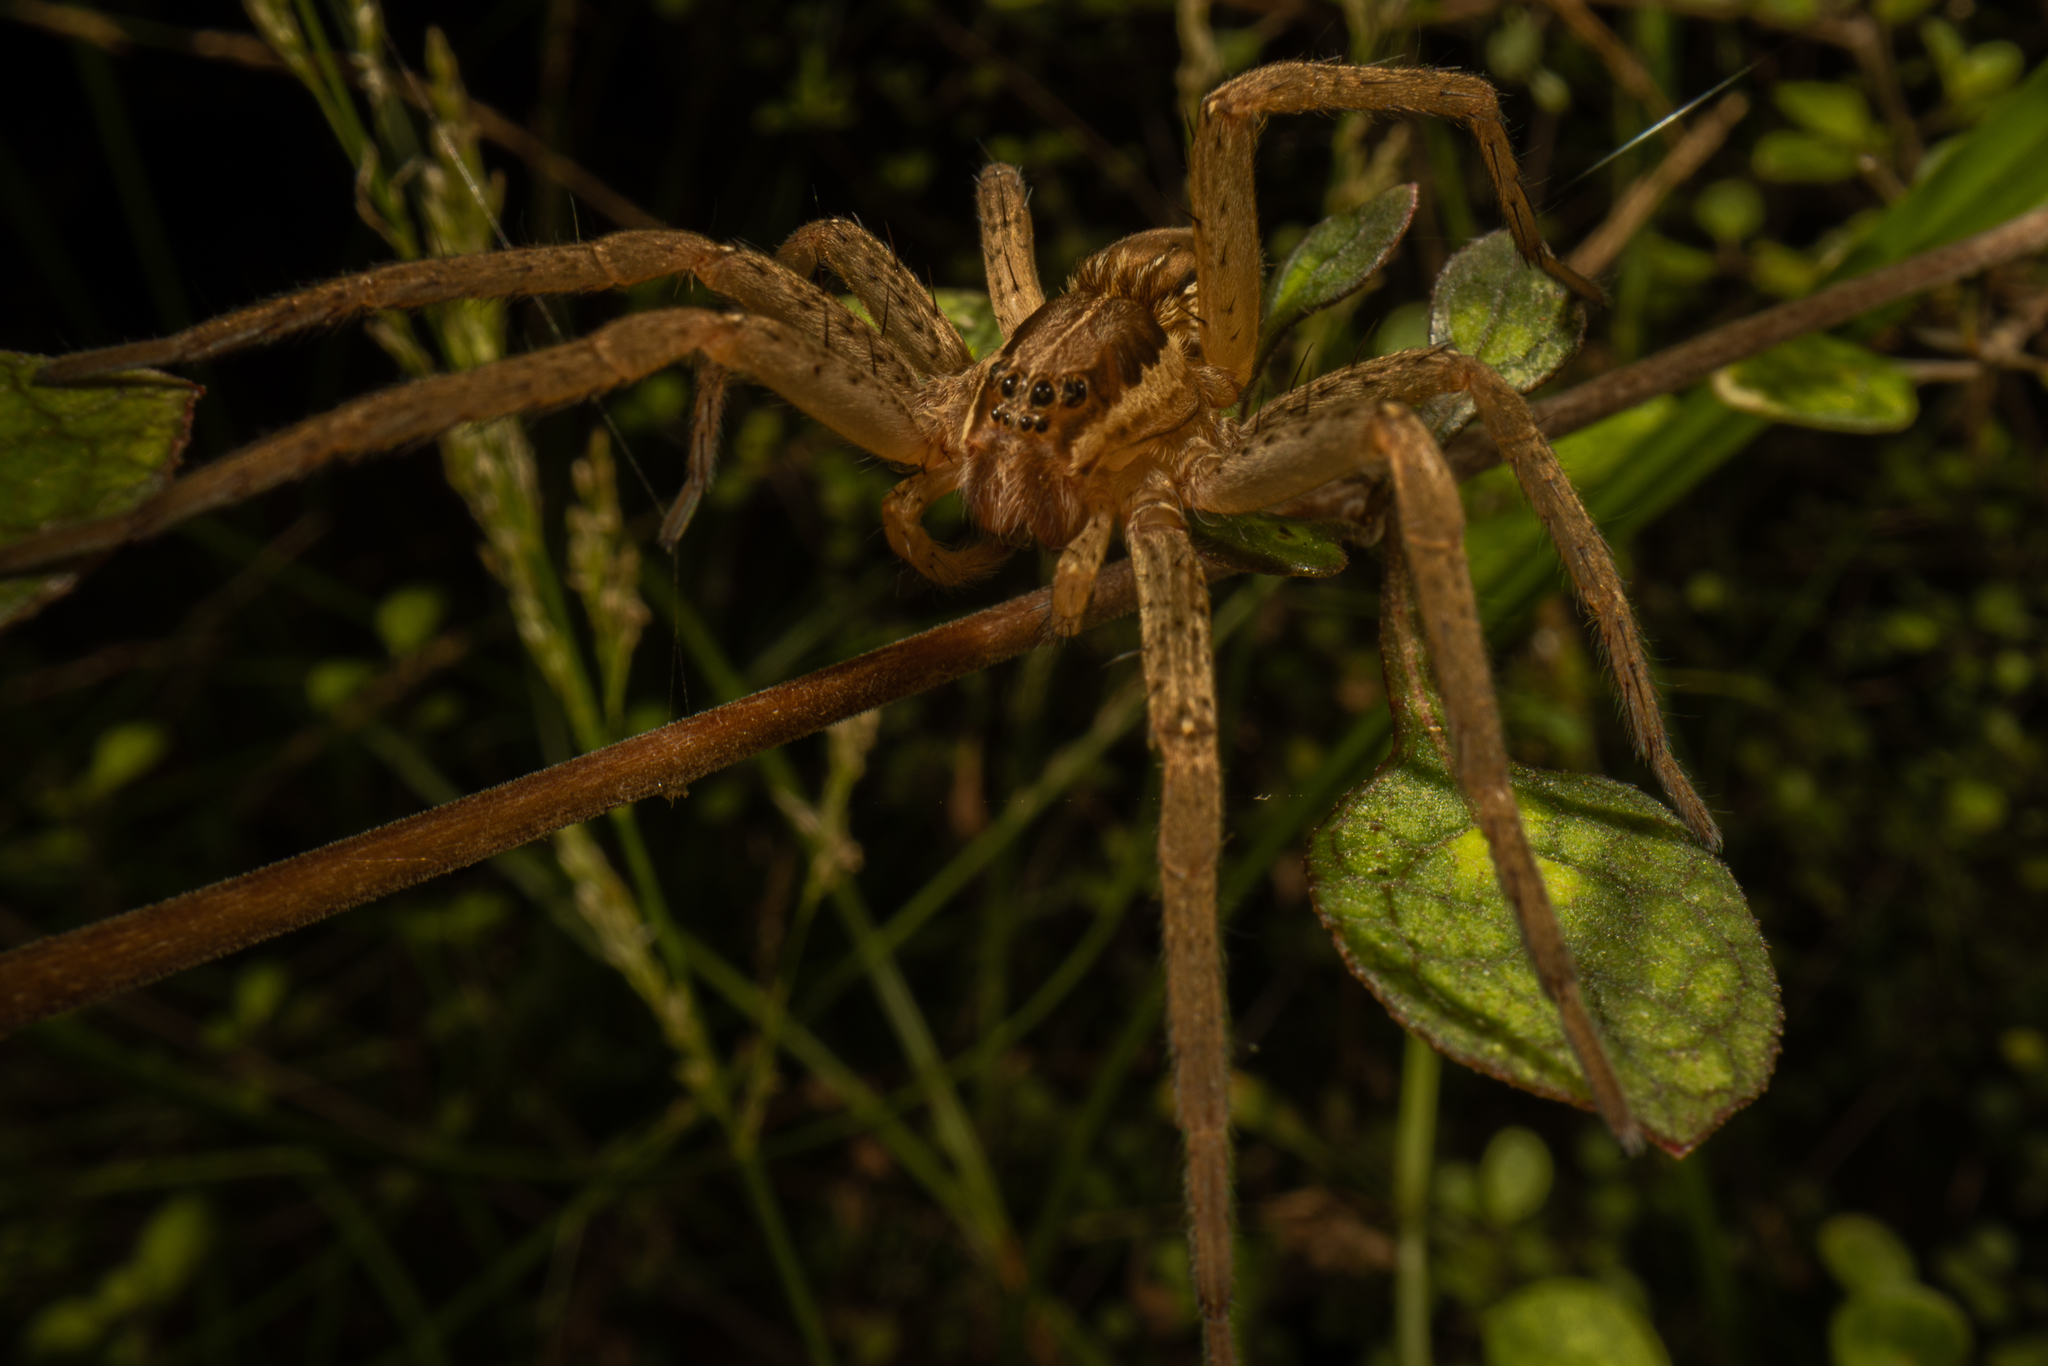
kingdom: Animalia
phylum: Arthropoda
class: Arachnida
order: Araneae
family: Pisauridae
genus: Dolomedes
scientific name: Dolomedes minor
